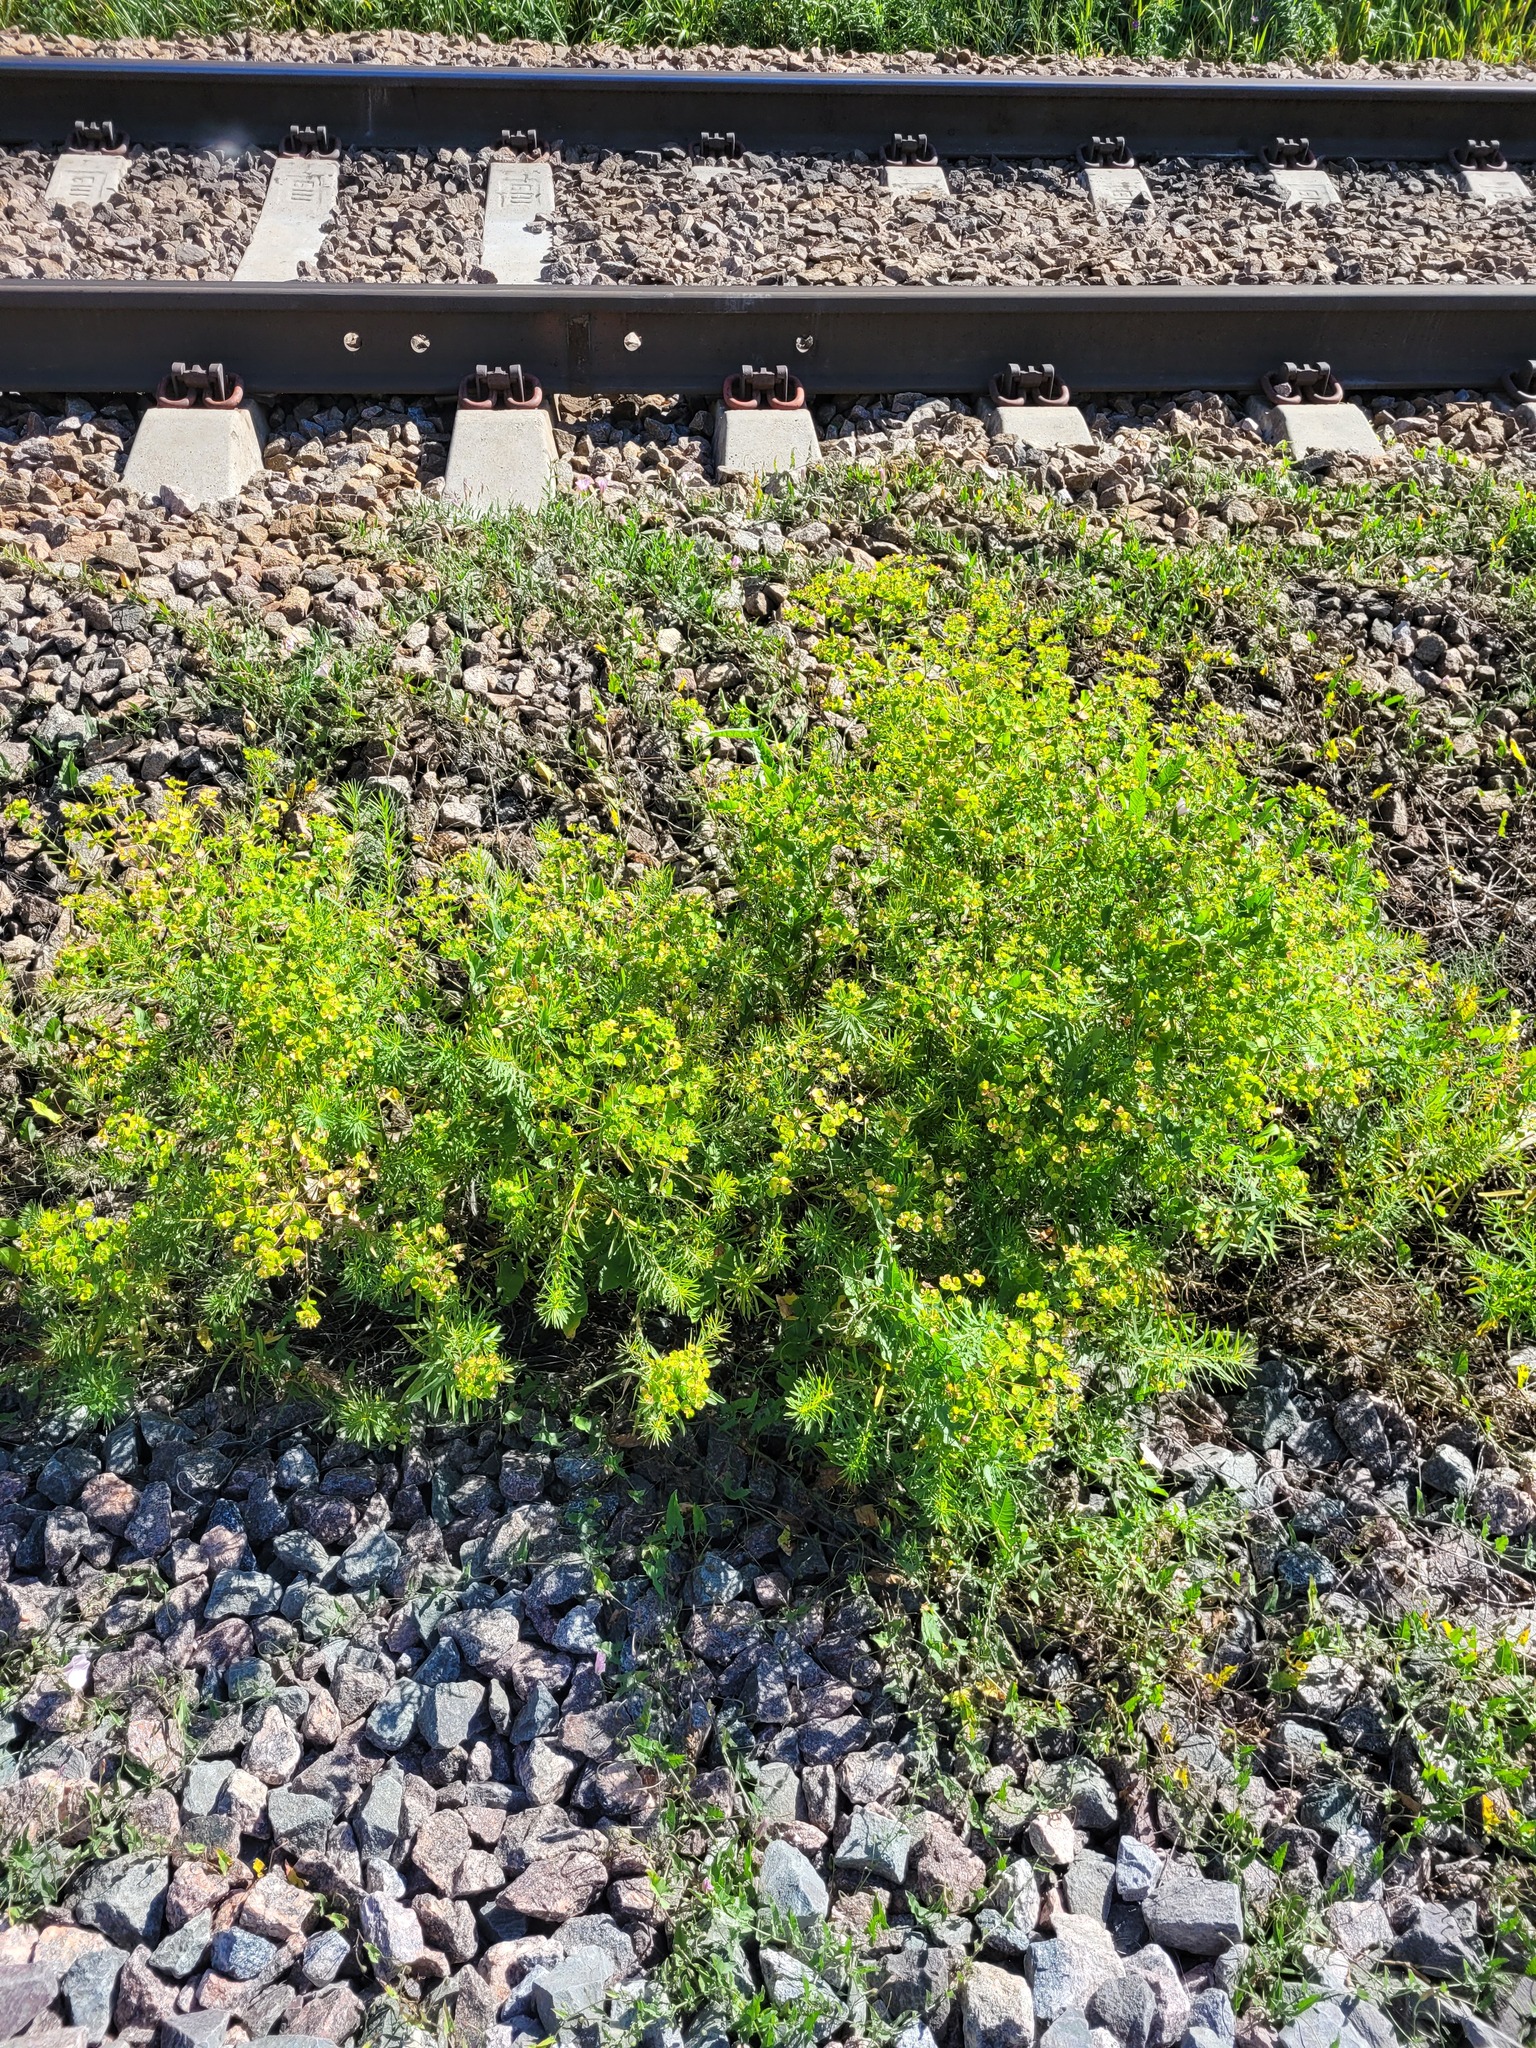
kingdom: Plantae
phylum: Tracheophyta
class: Magnoliopsida
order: Malpighiales
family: Euphorbiaceae
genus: Euphorbia
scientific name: Euphorbia virgata
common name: Leafy spurge
